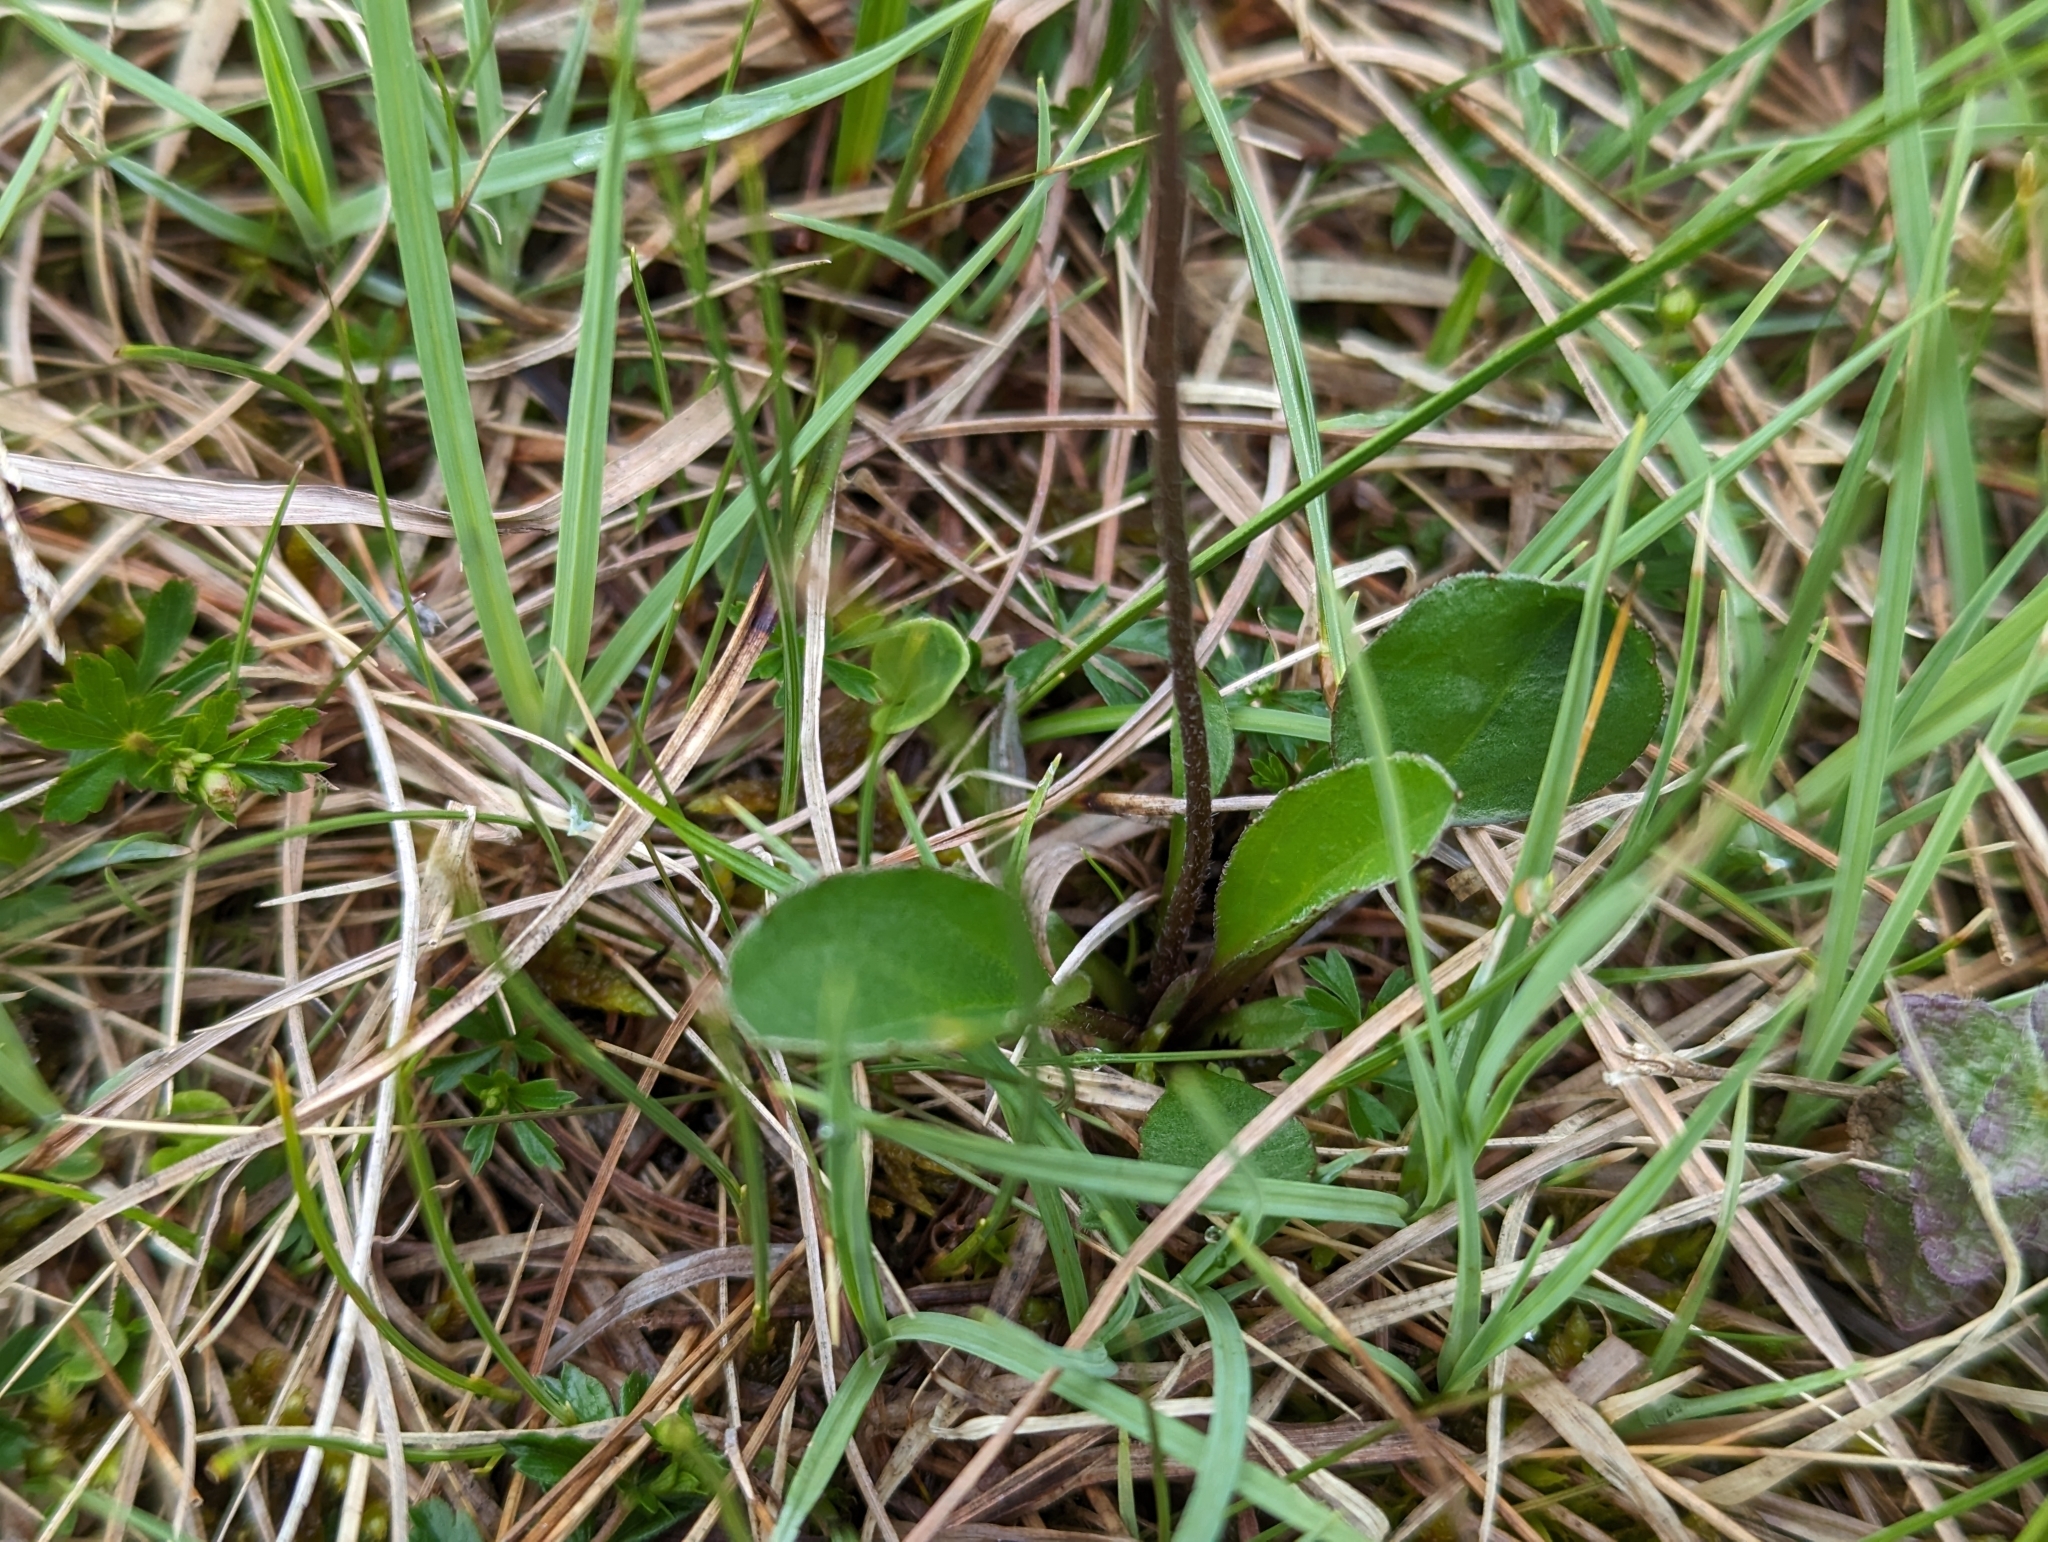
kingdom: Plantae
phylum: Tracheophyta
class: Magnoliopsida
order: Asterales
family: Asteraceae
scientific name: Asteraceae
